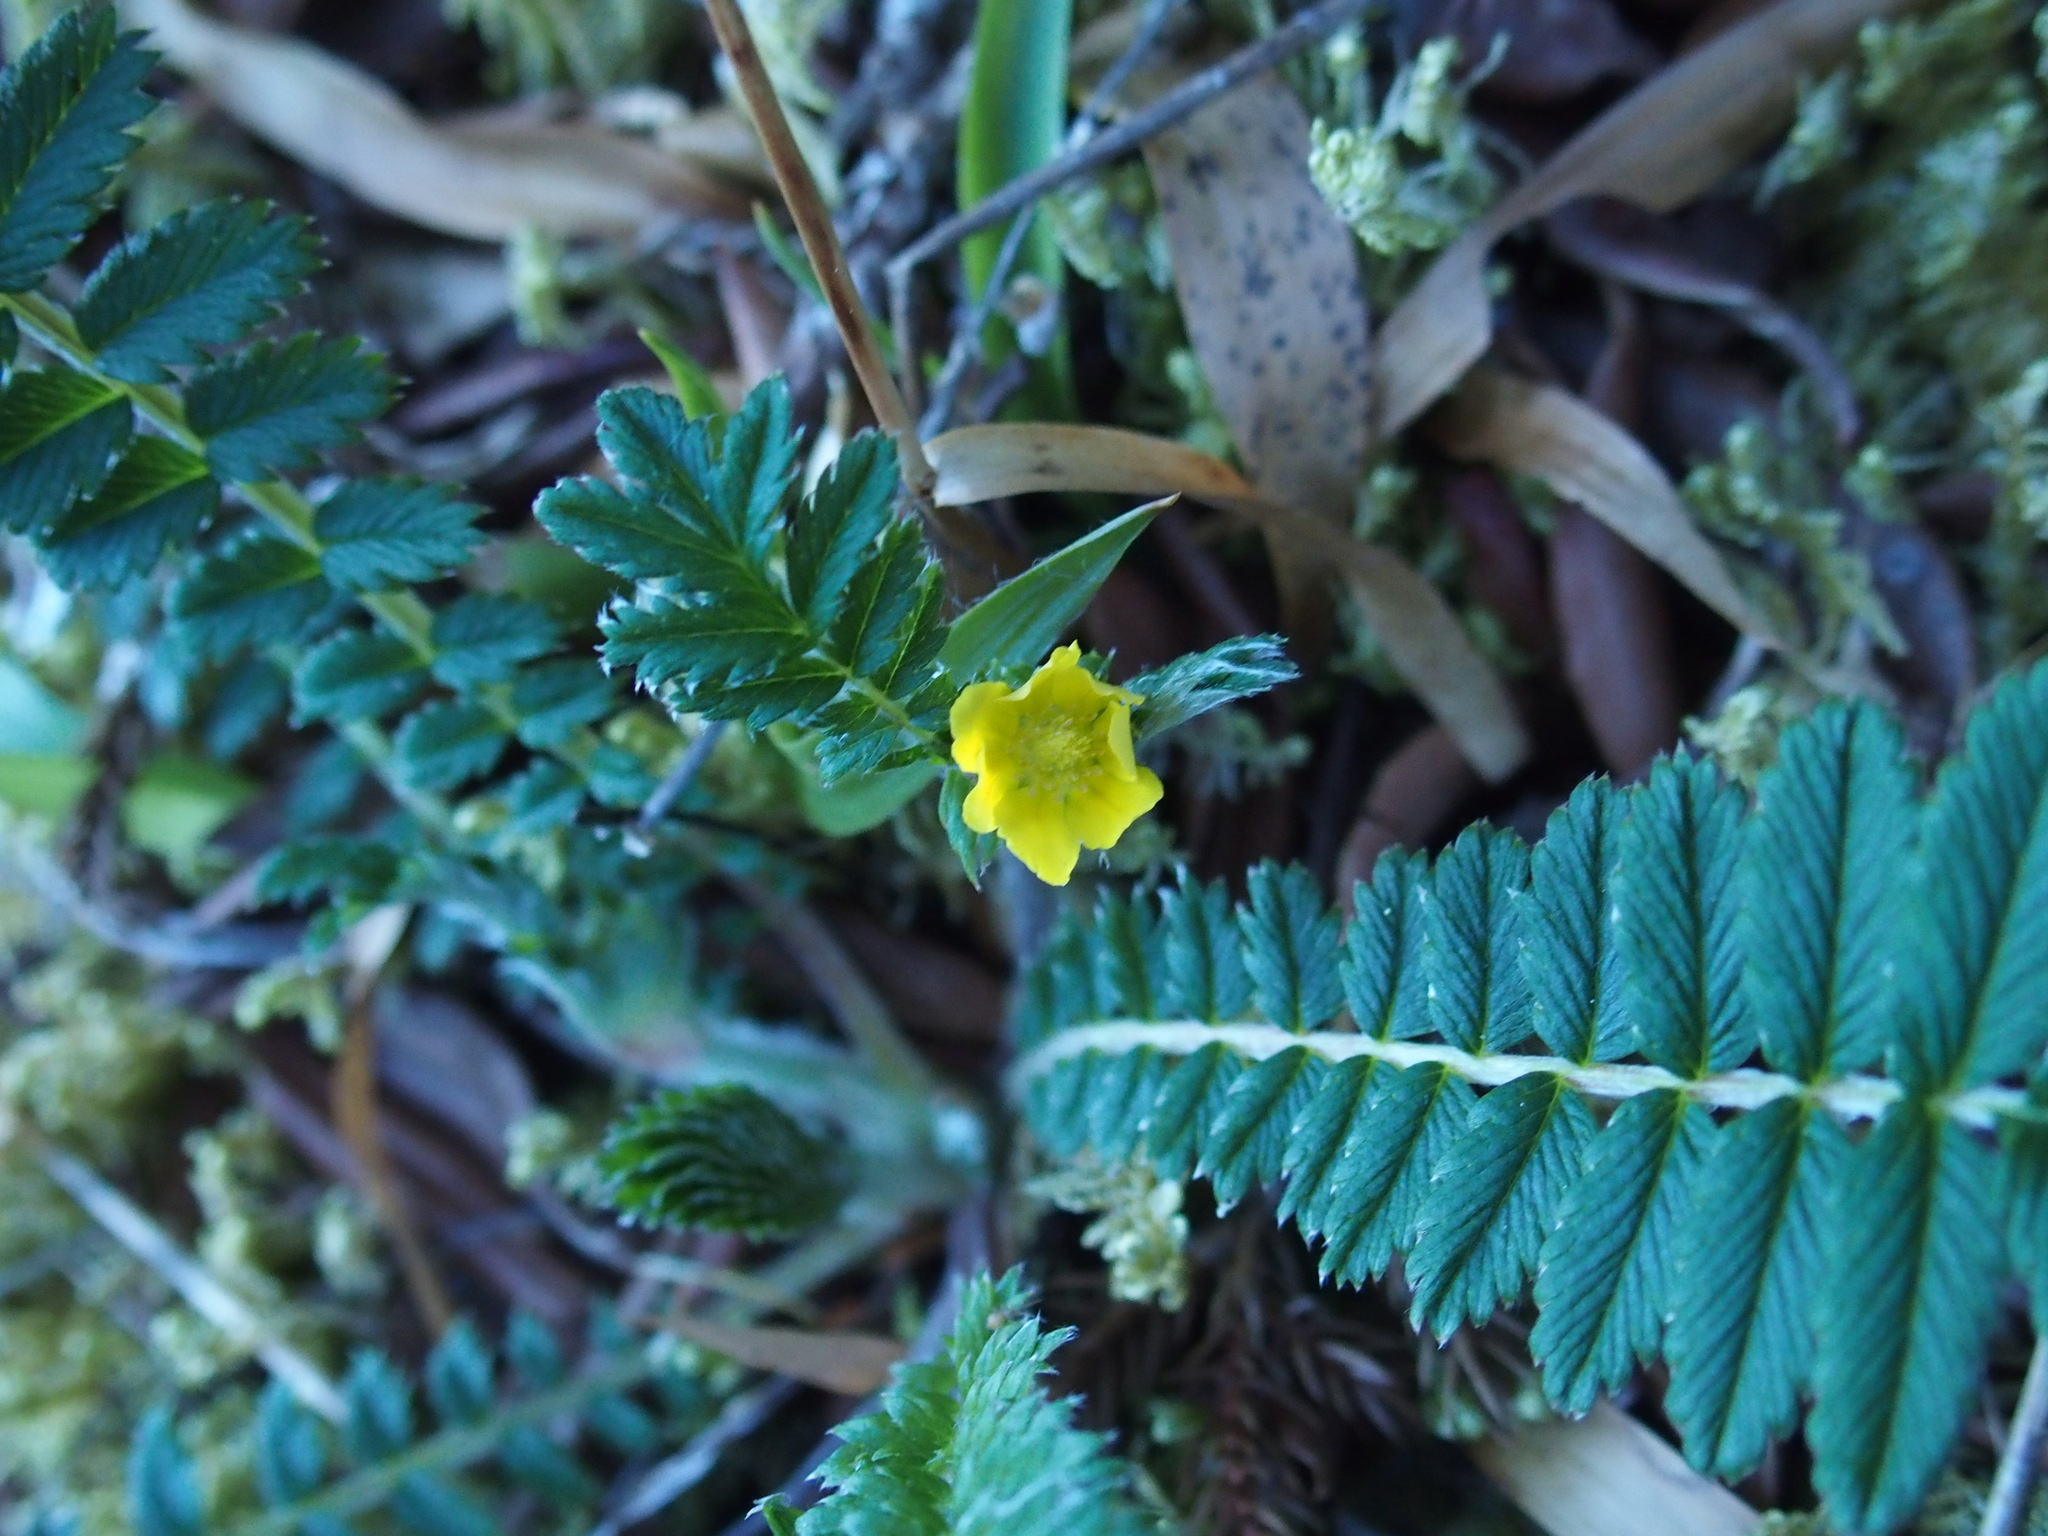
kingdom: Plantae
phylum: Tracheophyta
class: Magnoliopsida
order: Rosales
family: Rosaceae
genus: Argentina
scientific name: Argentina leuconota
